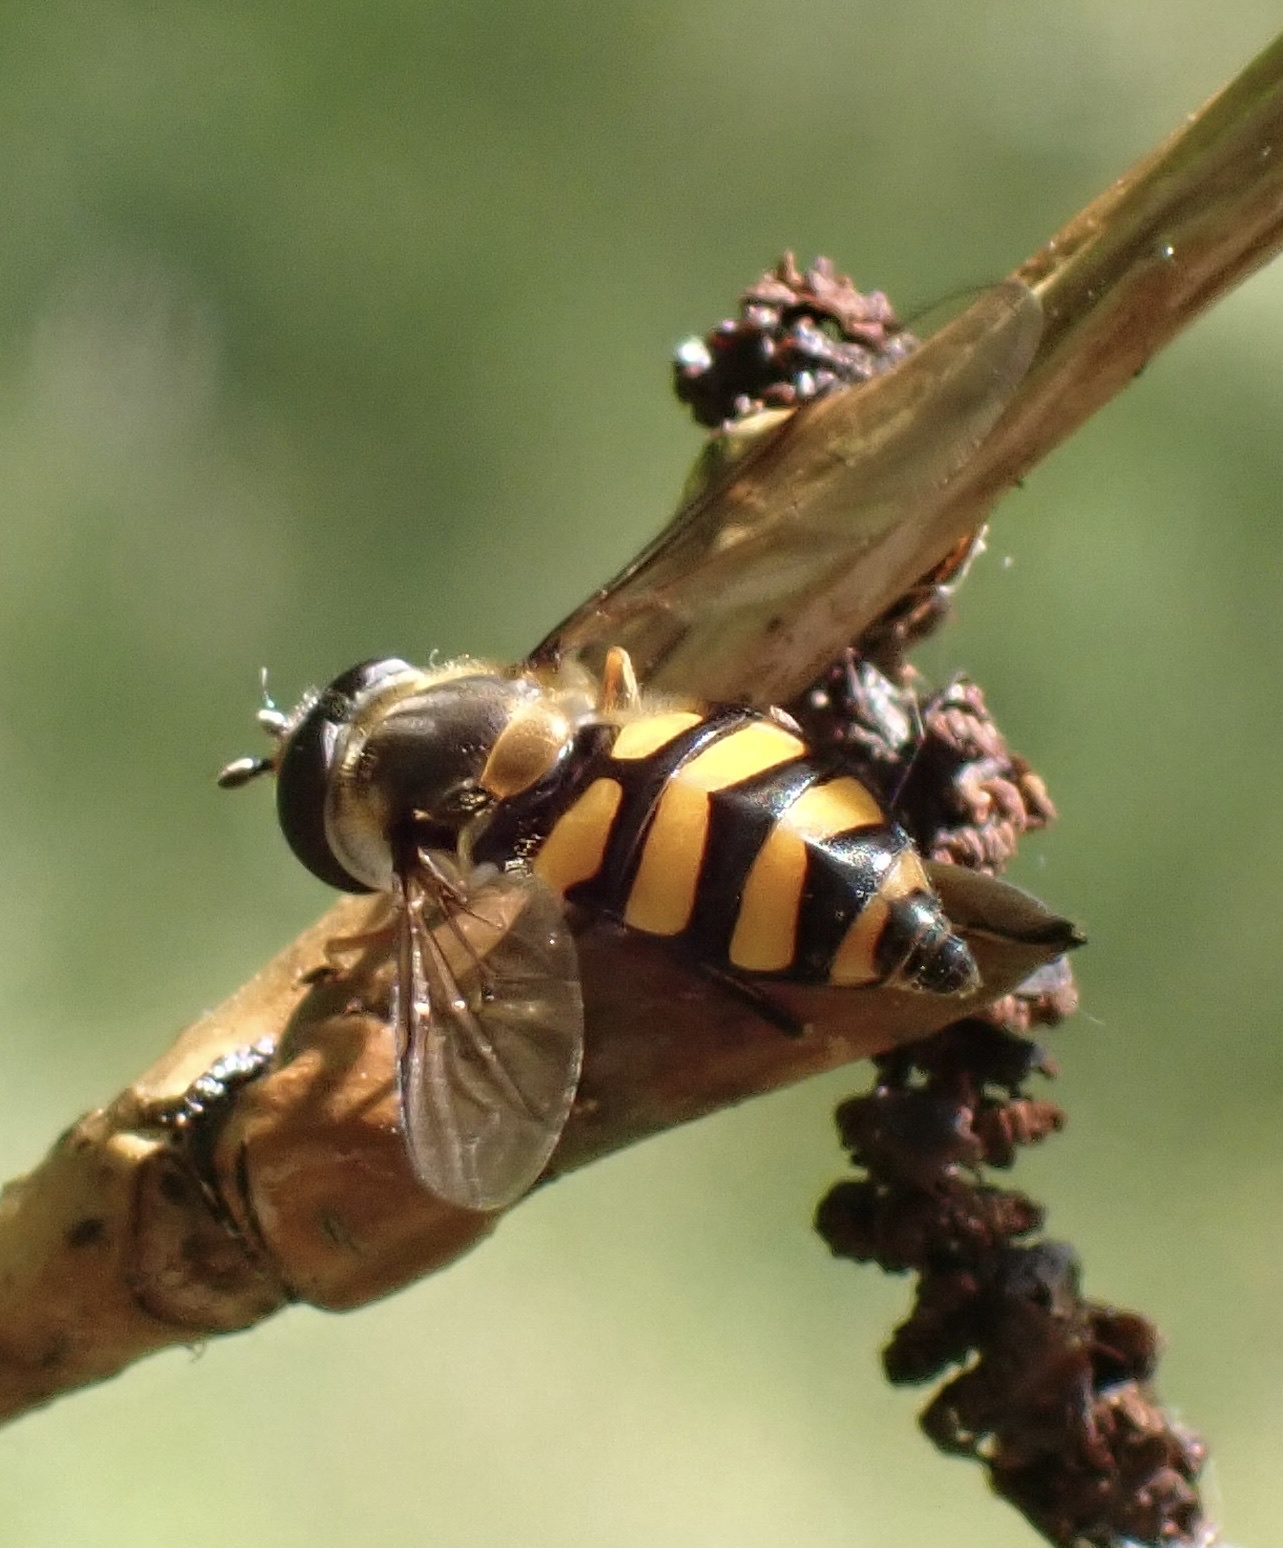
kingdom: Animalia
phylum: Arthropoda
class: Insecta
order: Diptera
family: Syrphidae
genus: Didea
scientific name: Didea fasciata
